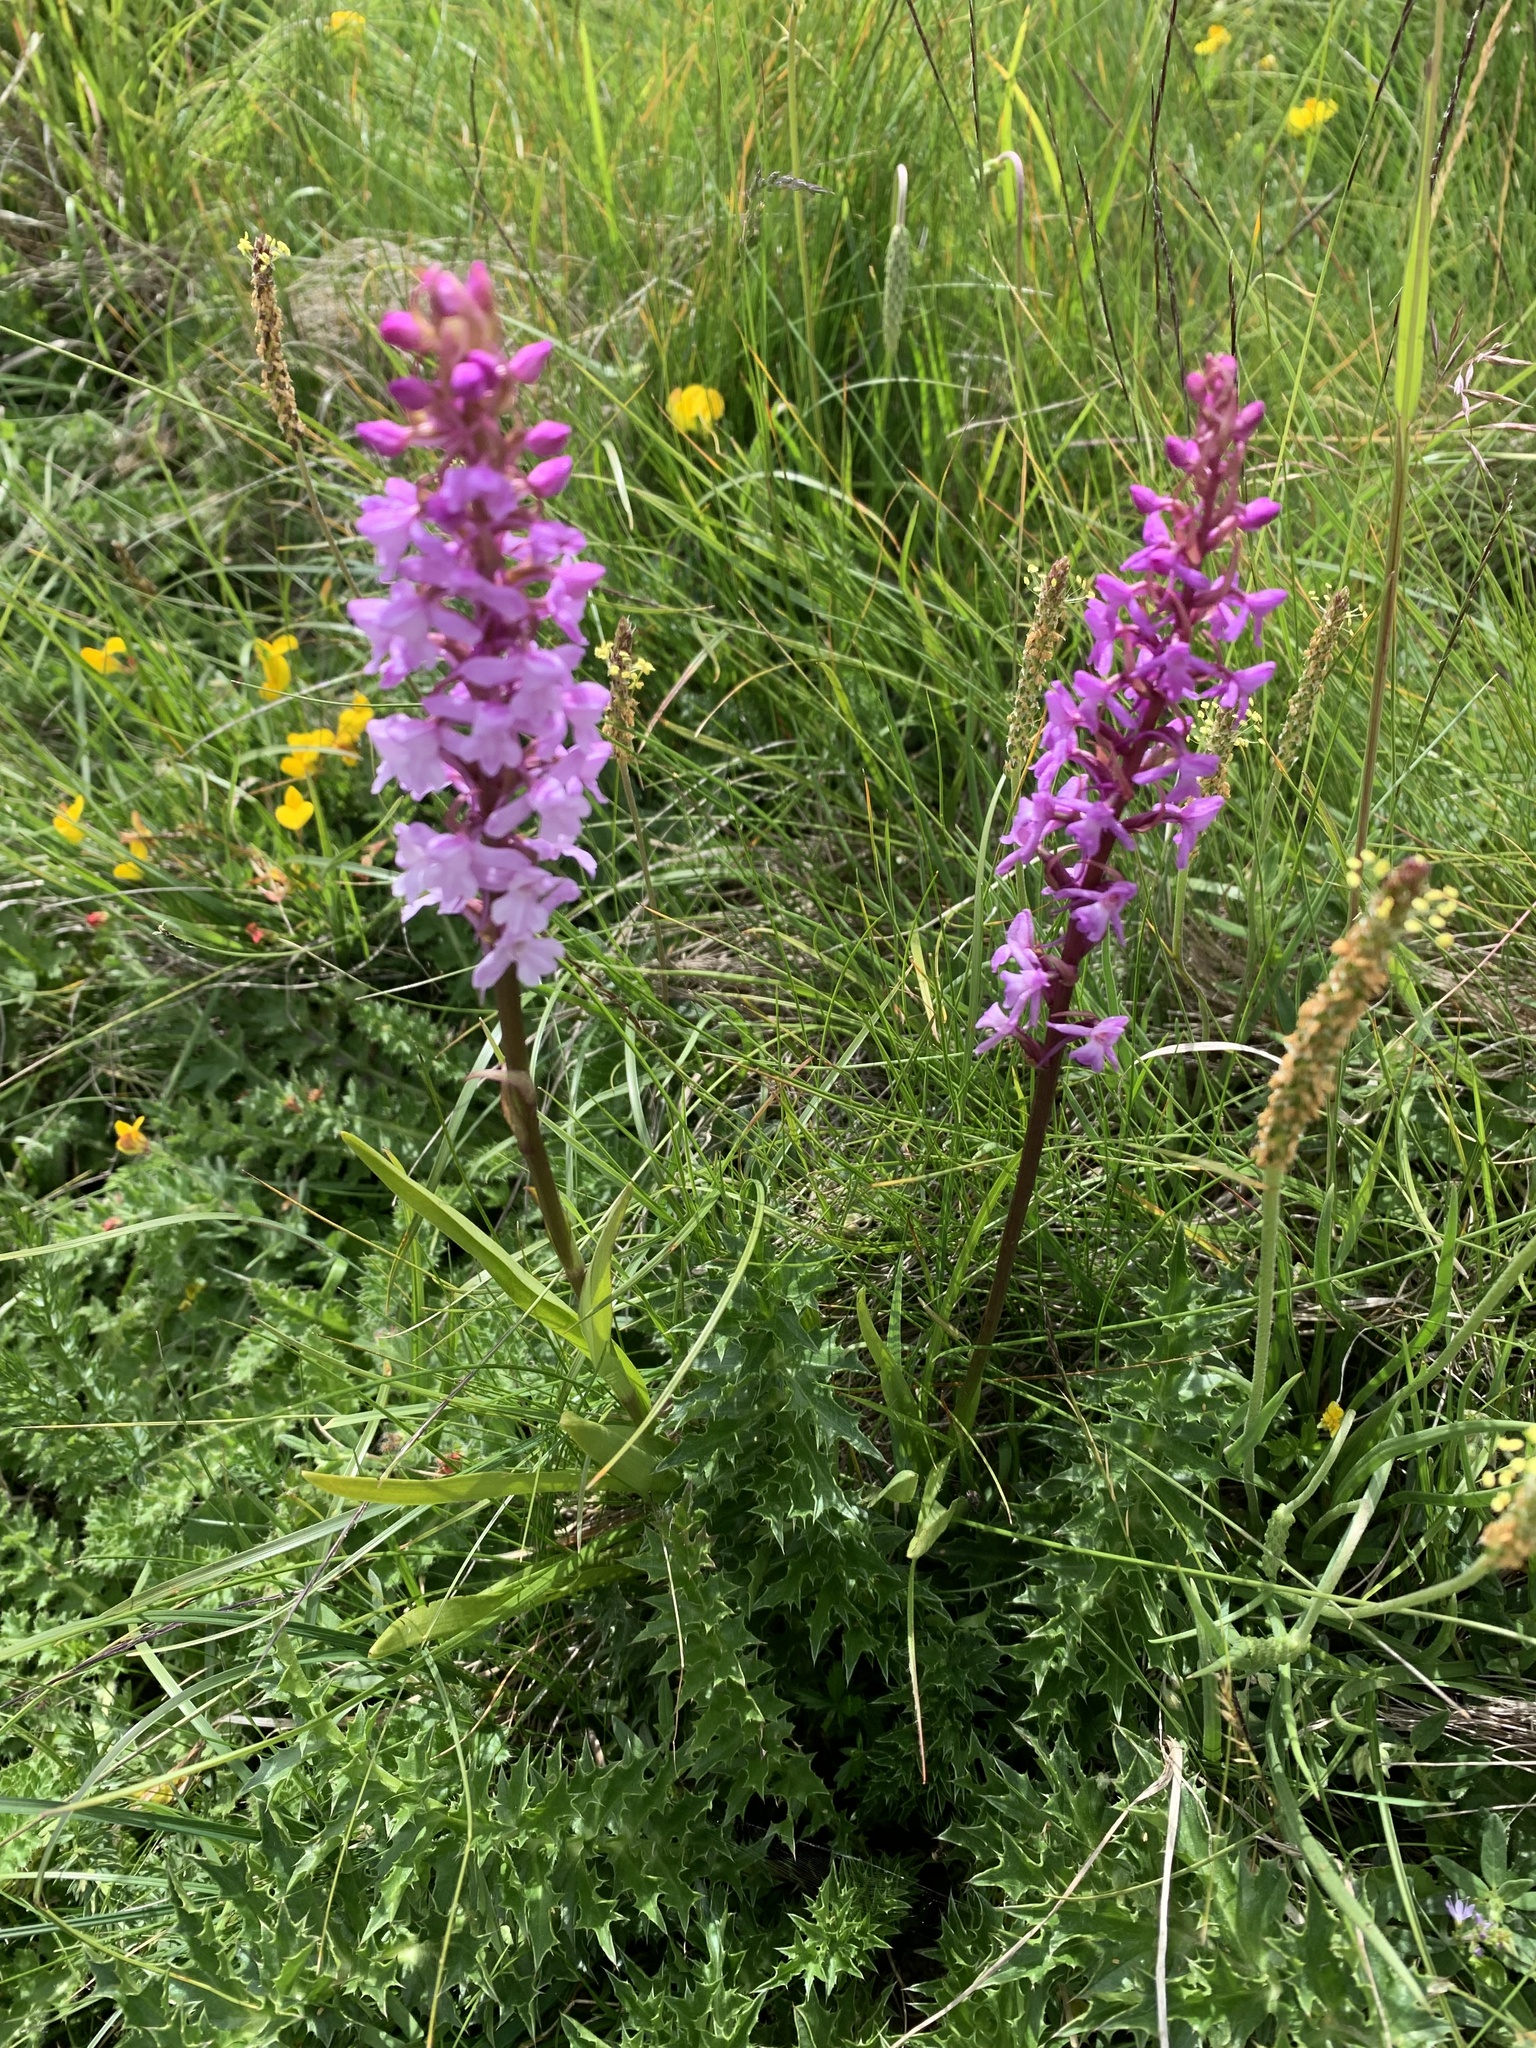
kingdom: Plantae
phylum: Tracheophyta
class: Liliopsida
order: Asparagales
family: Orchidaceae
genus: Gymnadenia
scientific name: Gymnadenia conopsea
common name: Fragrant orchid
